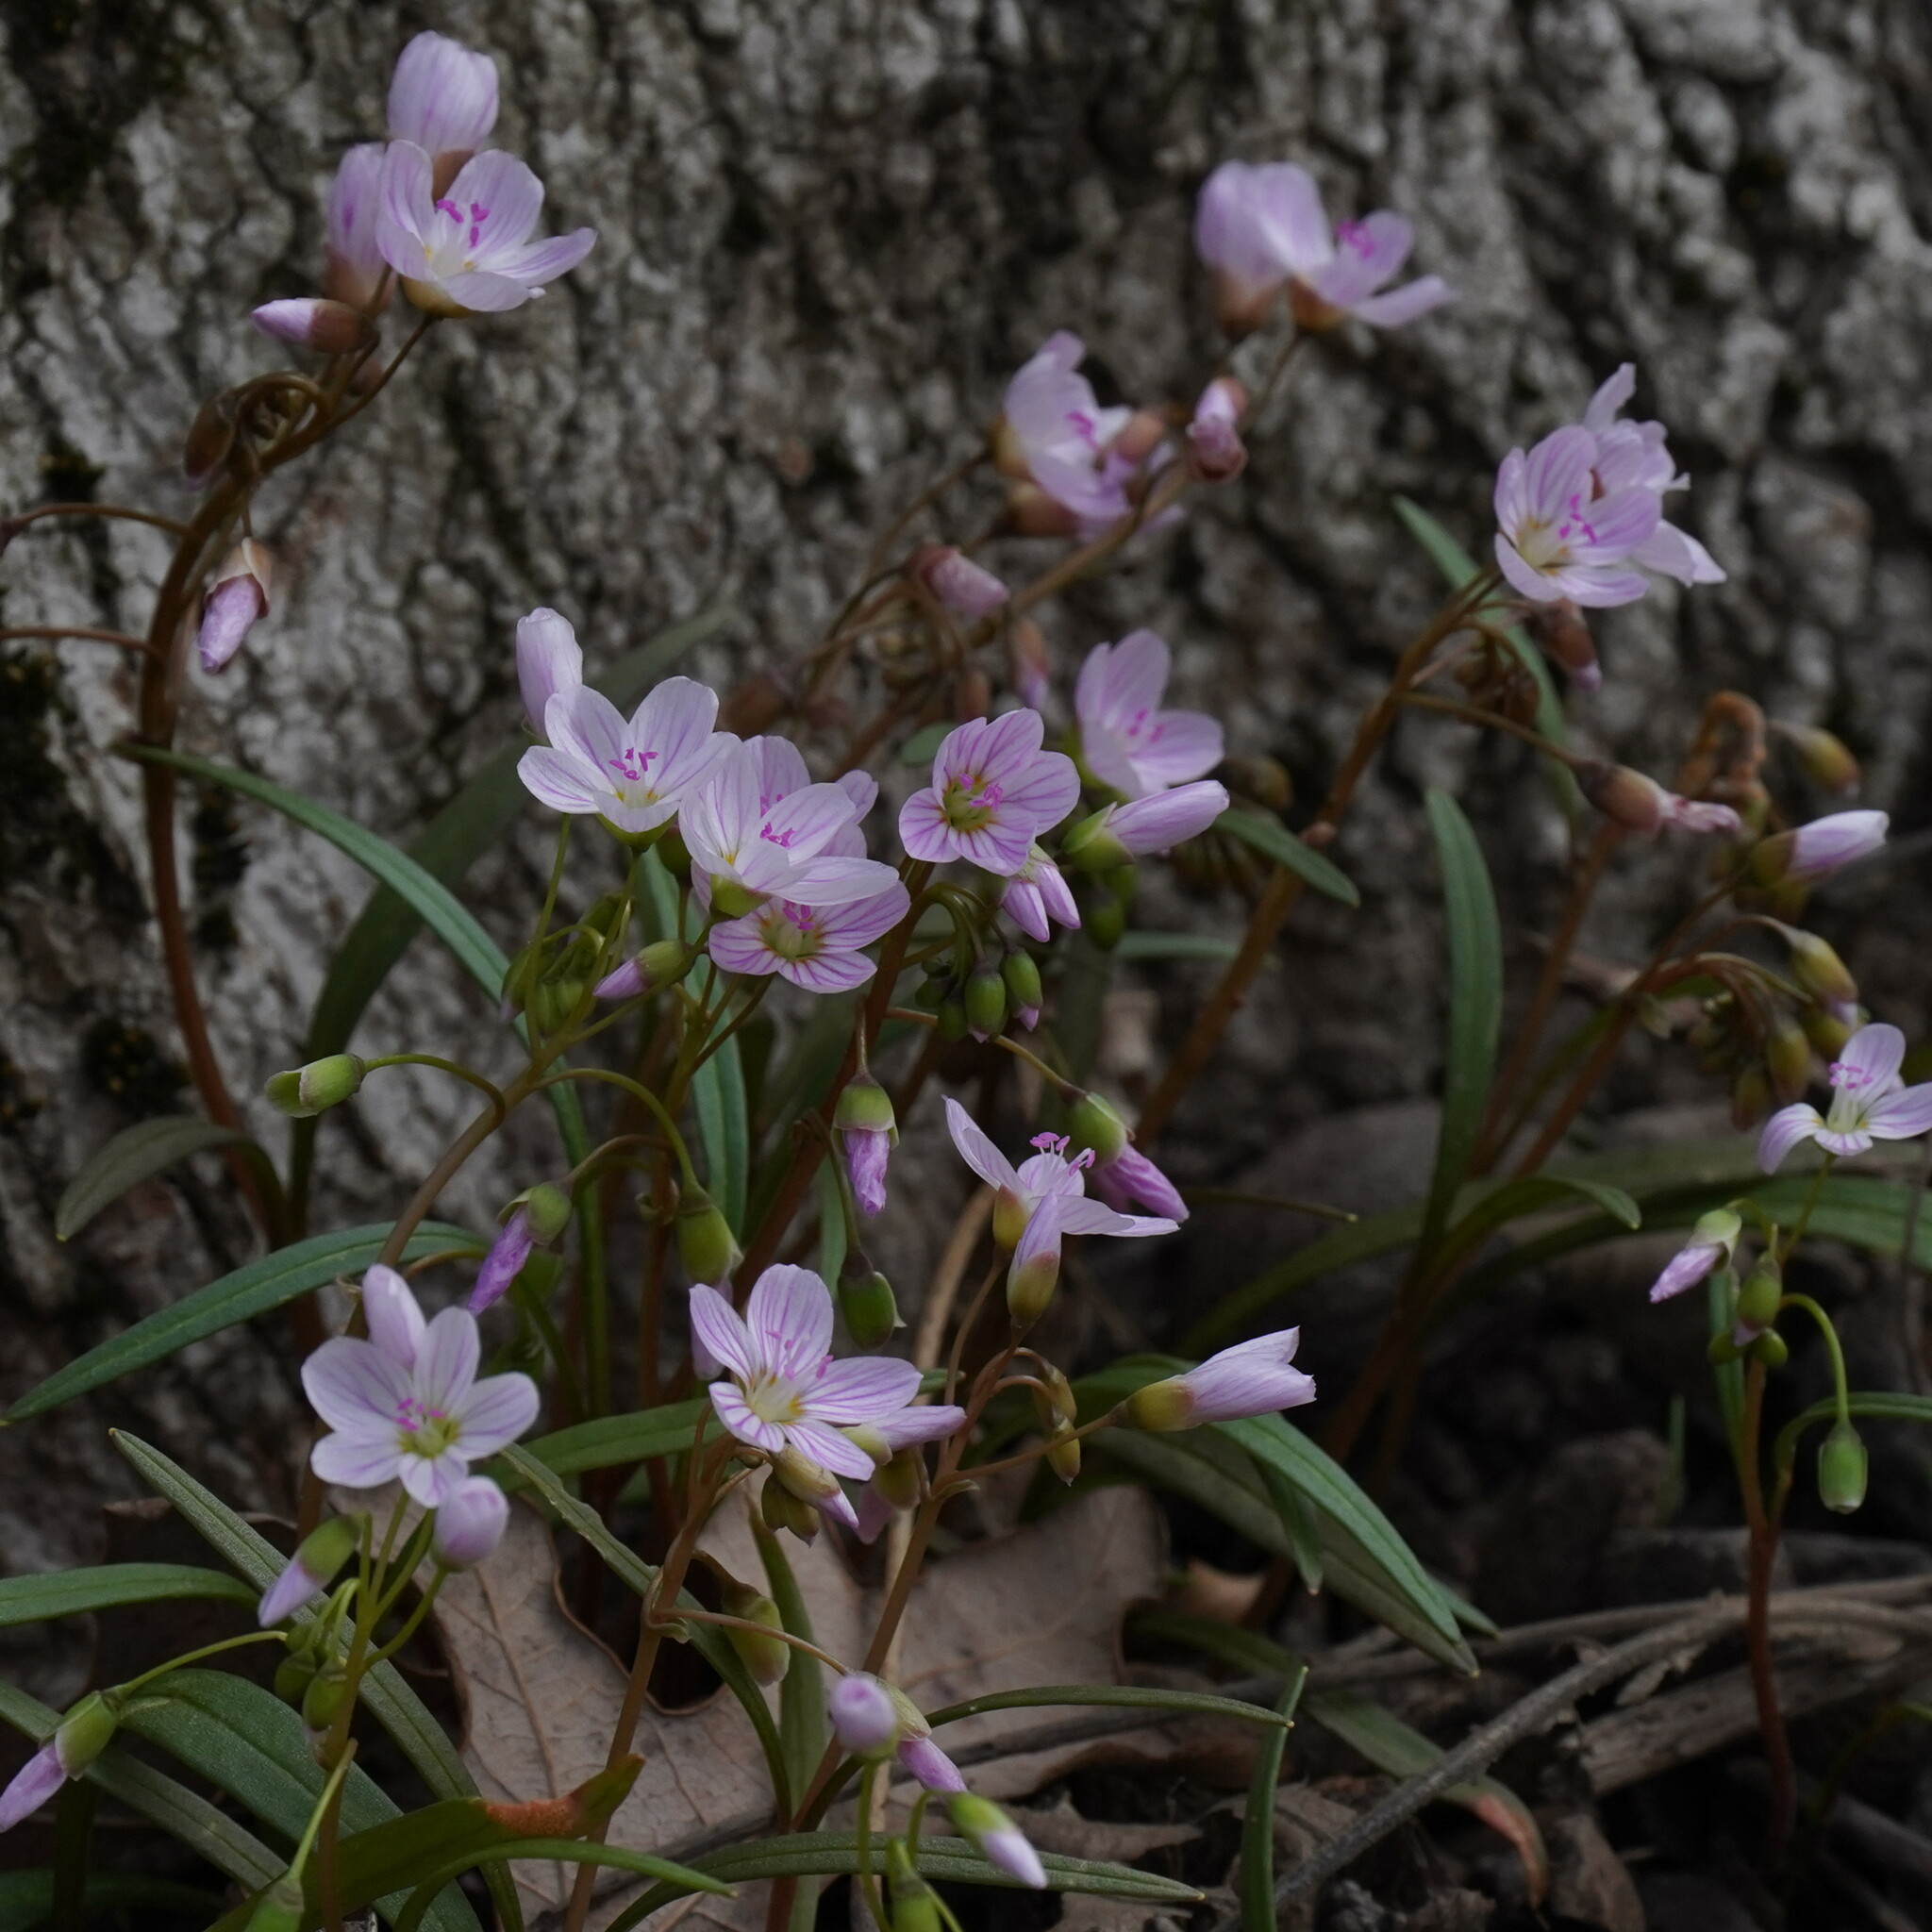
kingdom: Plantae
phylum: Tracheophyta
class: Magnoliopsida
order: Caryophyllales
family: Montiaceae
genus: Claytonia
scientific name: Claytonia virginica
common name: Virginia springbeauty
